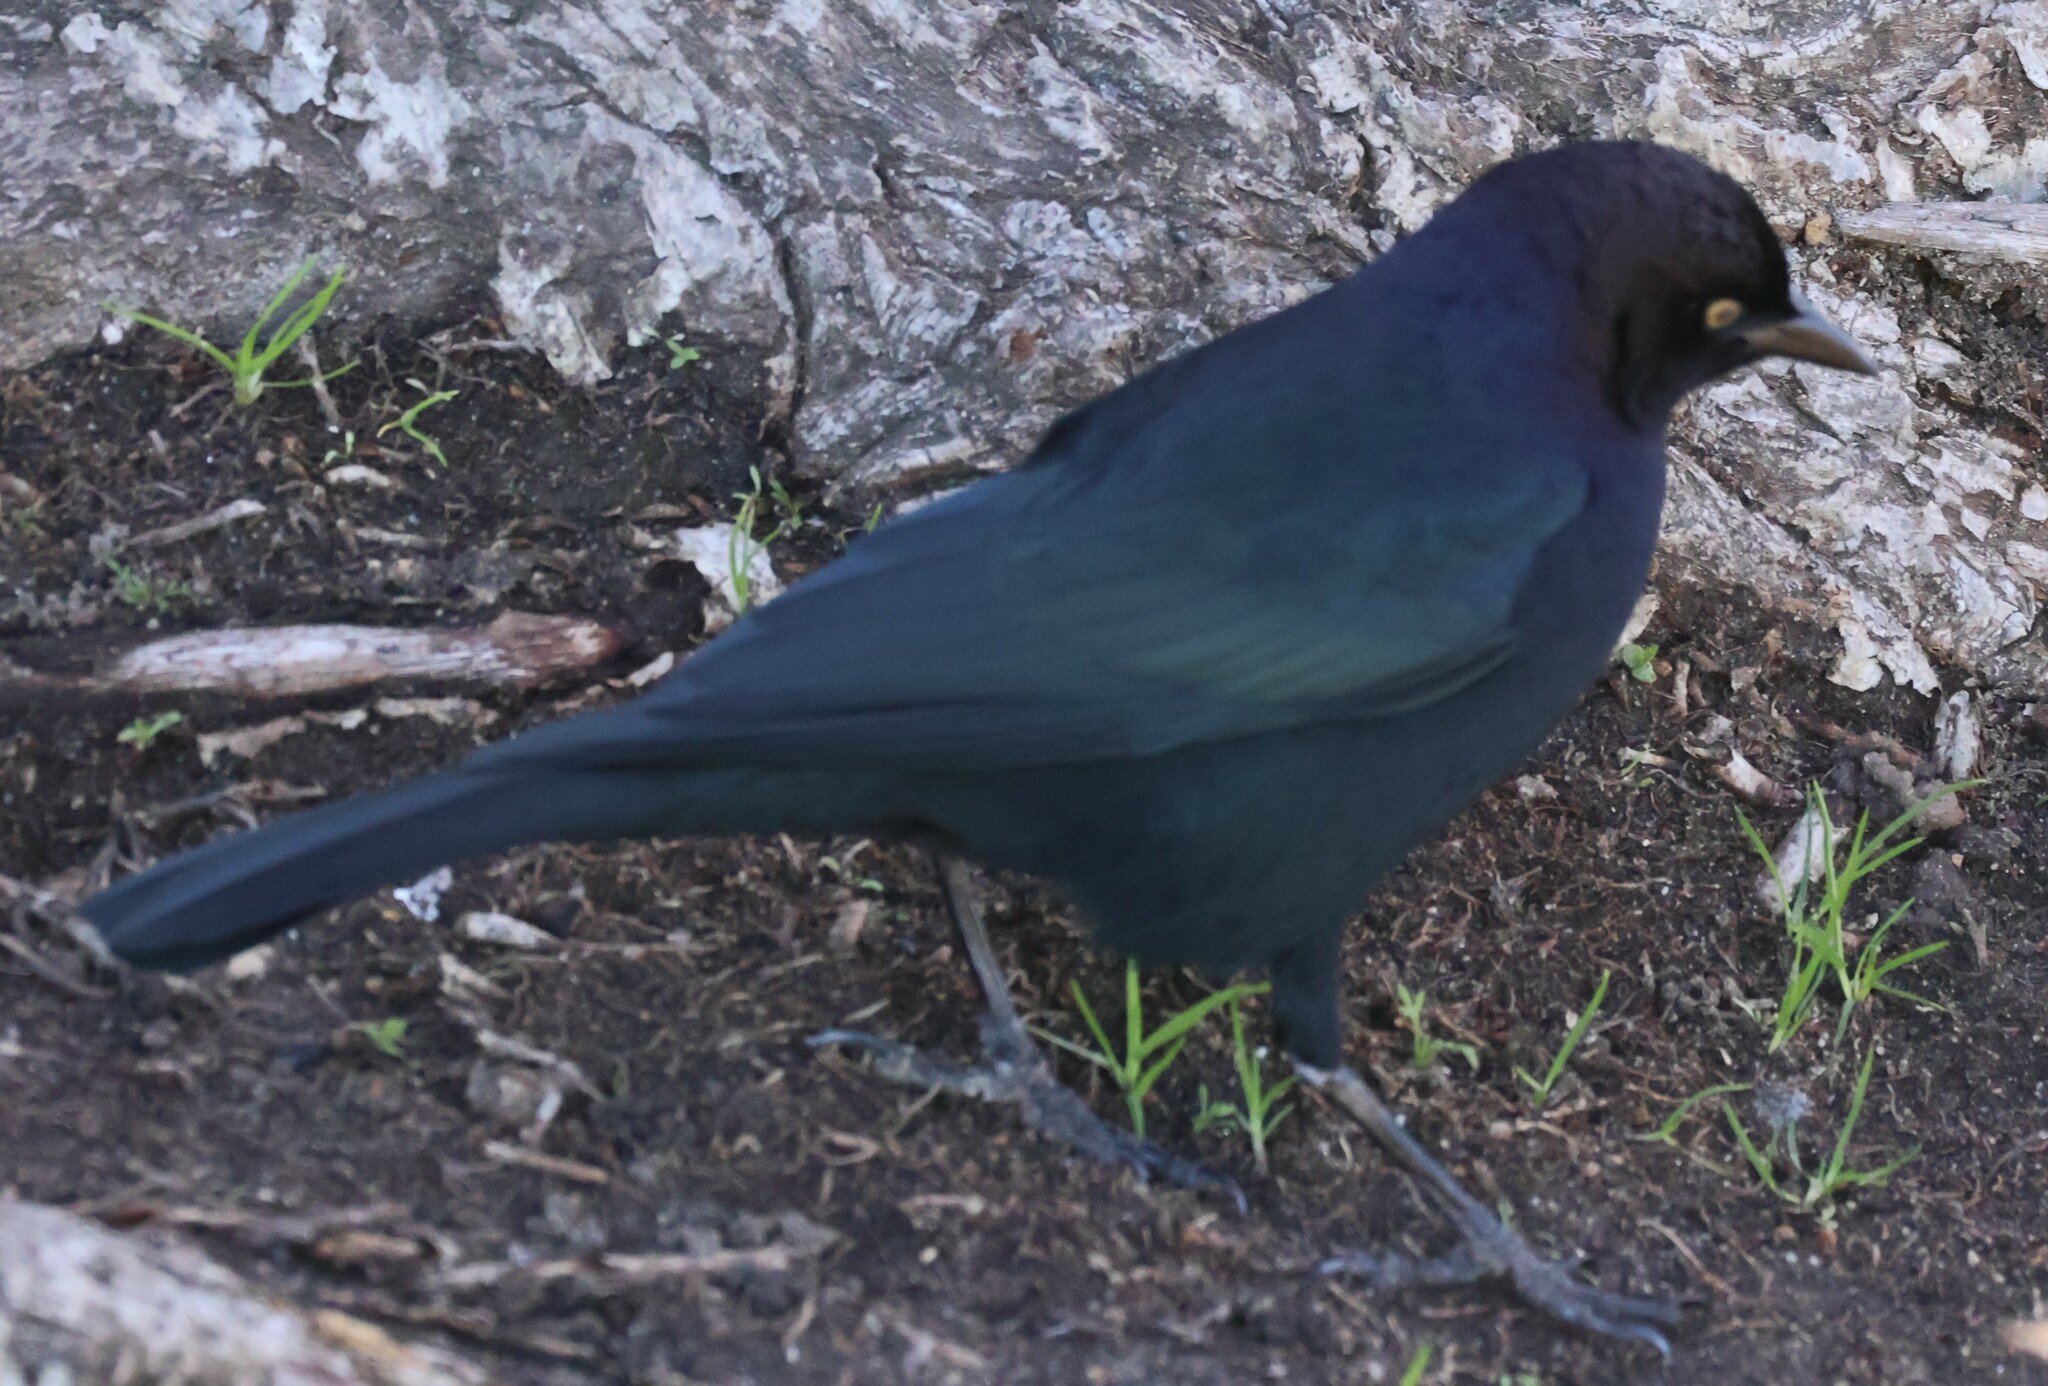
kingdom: Animalia
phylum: Chordata
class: Aves
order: Passeriformes
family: Icteridae
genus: Euphagus
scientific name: Euphagus cyanocephalus
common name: Brewer's blackbird
